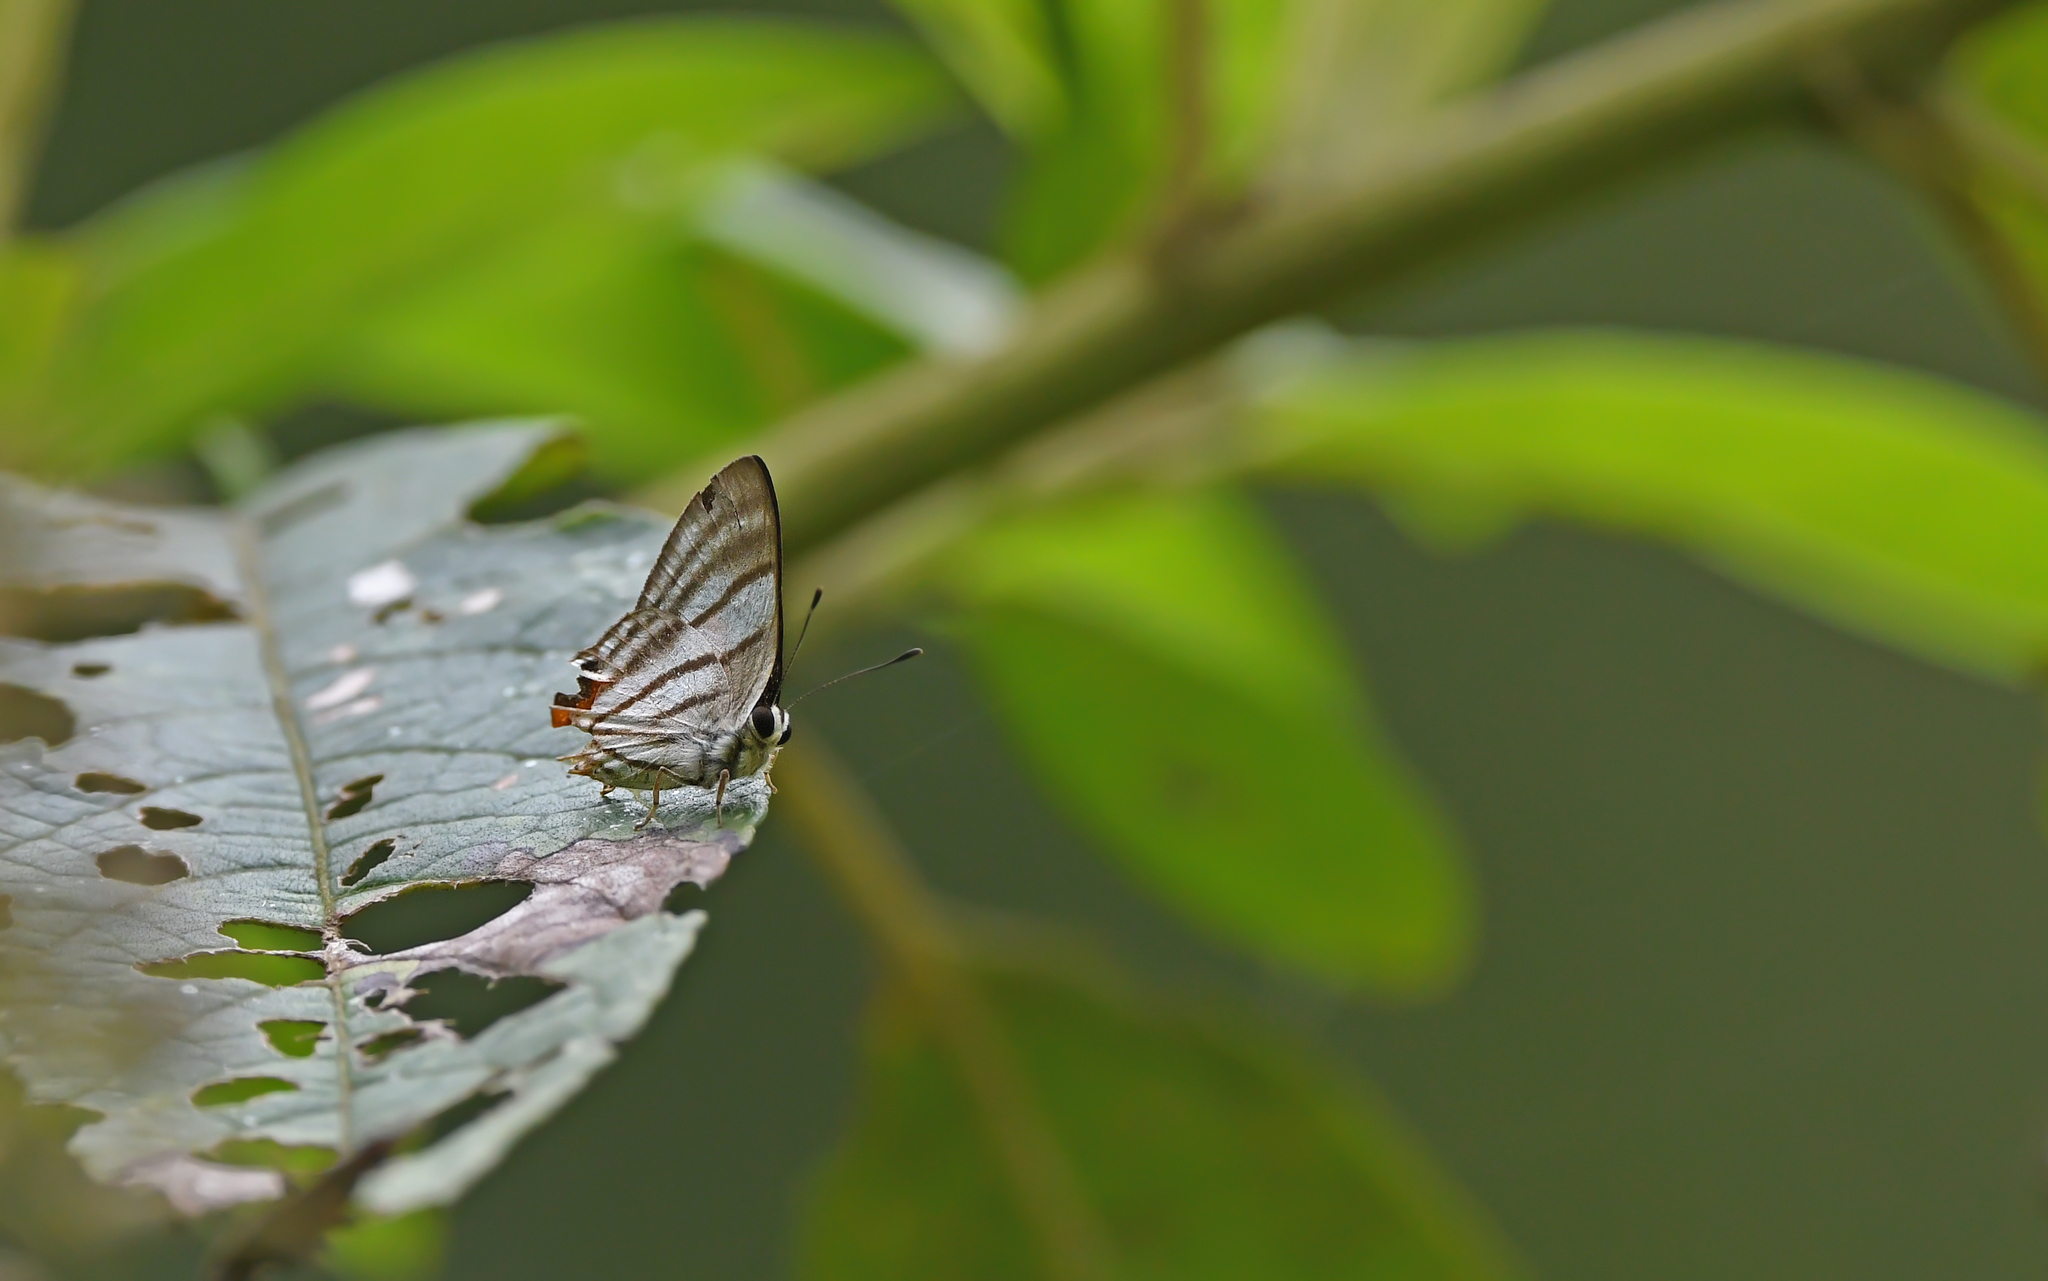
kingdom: Animalia
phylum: Arthropoda
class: Insecta
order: Lepidoptera
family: Lycaenidae
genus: Euselasia
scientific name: Euselasia fervida
